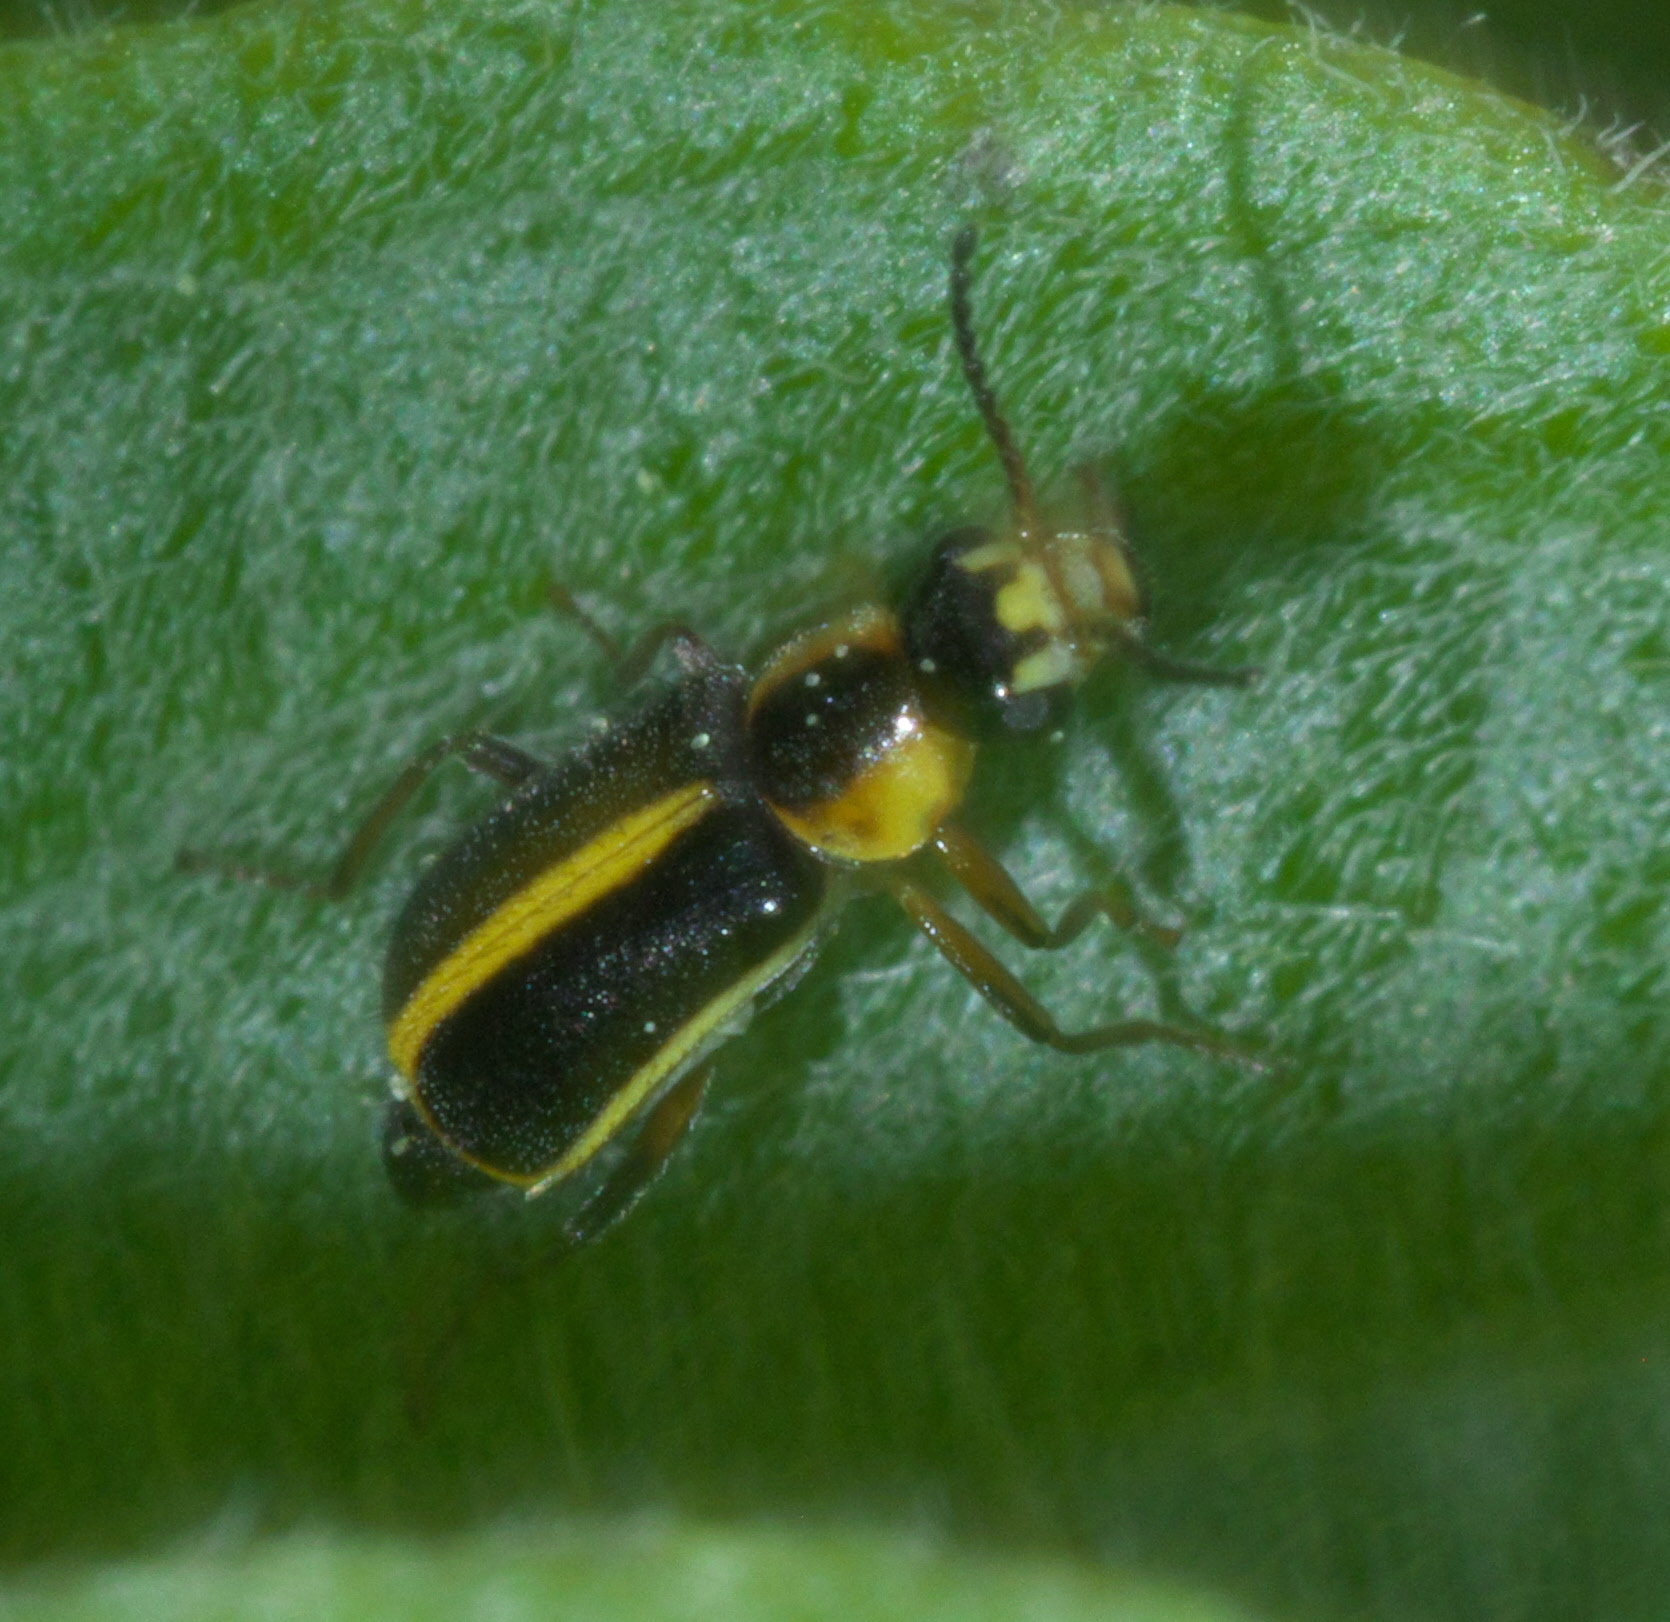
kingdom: Animalia
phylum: Arthropoda
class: Insecta
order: Coleoptera
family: Malachiidae
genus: Attalus
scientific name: Attalus
